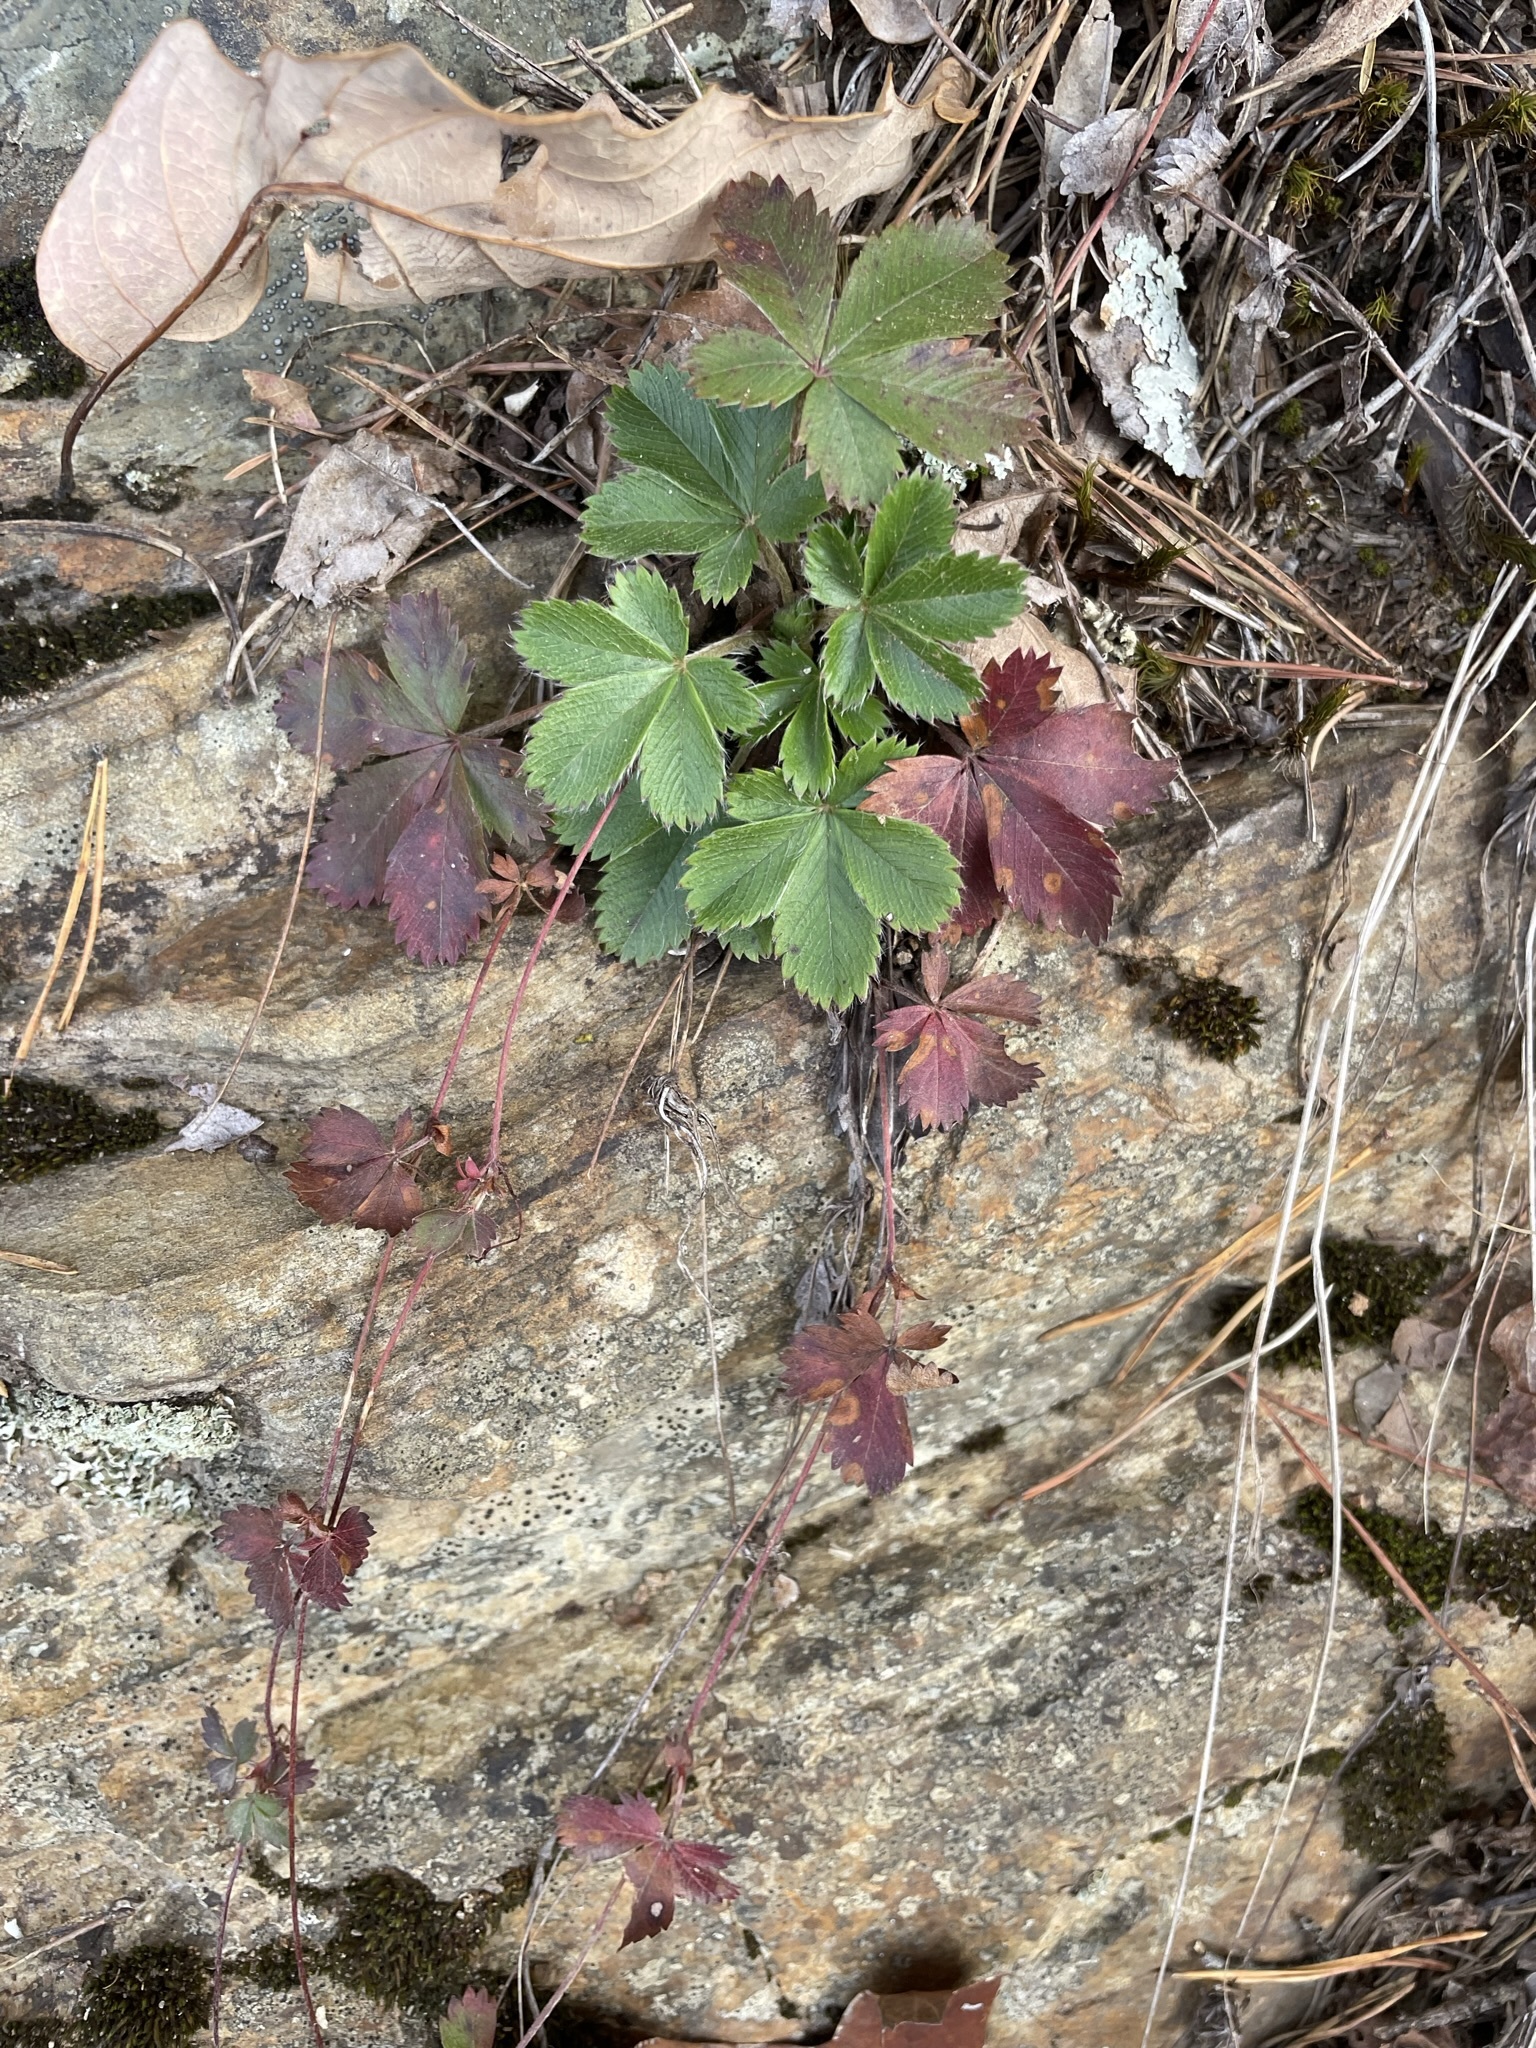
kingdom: Plantae
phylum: Tracheophyta
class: Magnoliopsida
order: Rosales
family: Rosaceae
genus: Potentilla
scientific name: Potentilla canadensis
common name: Canada cinquefoil
